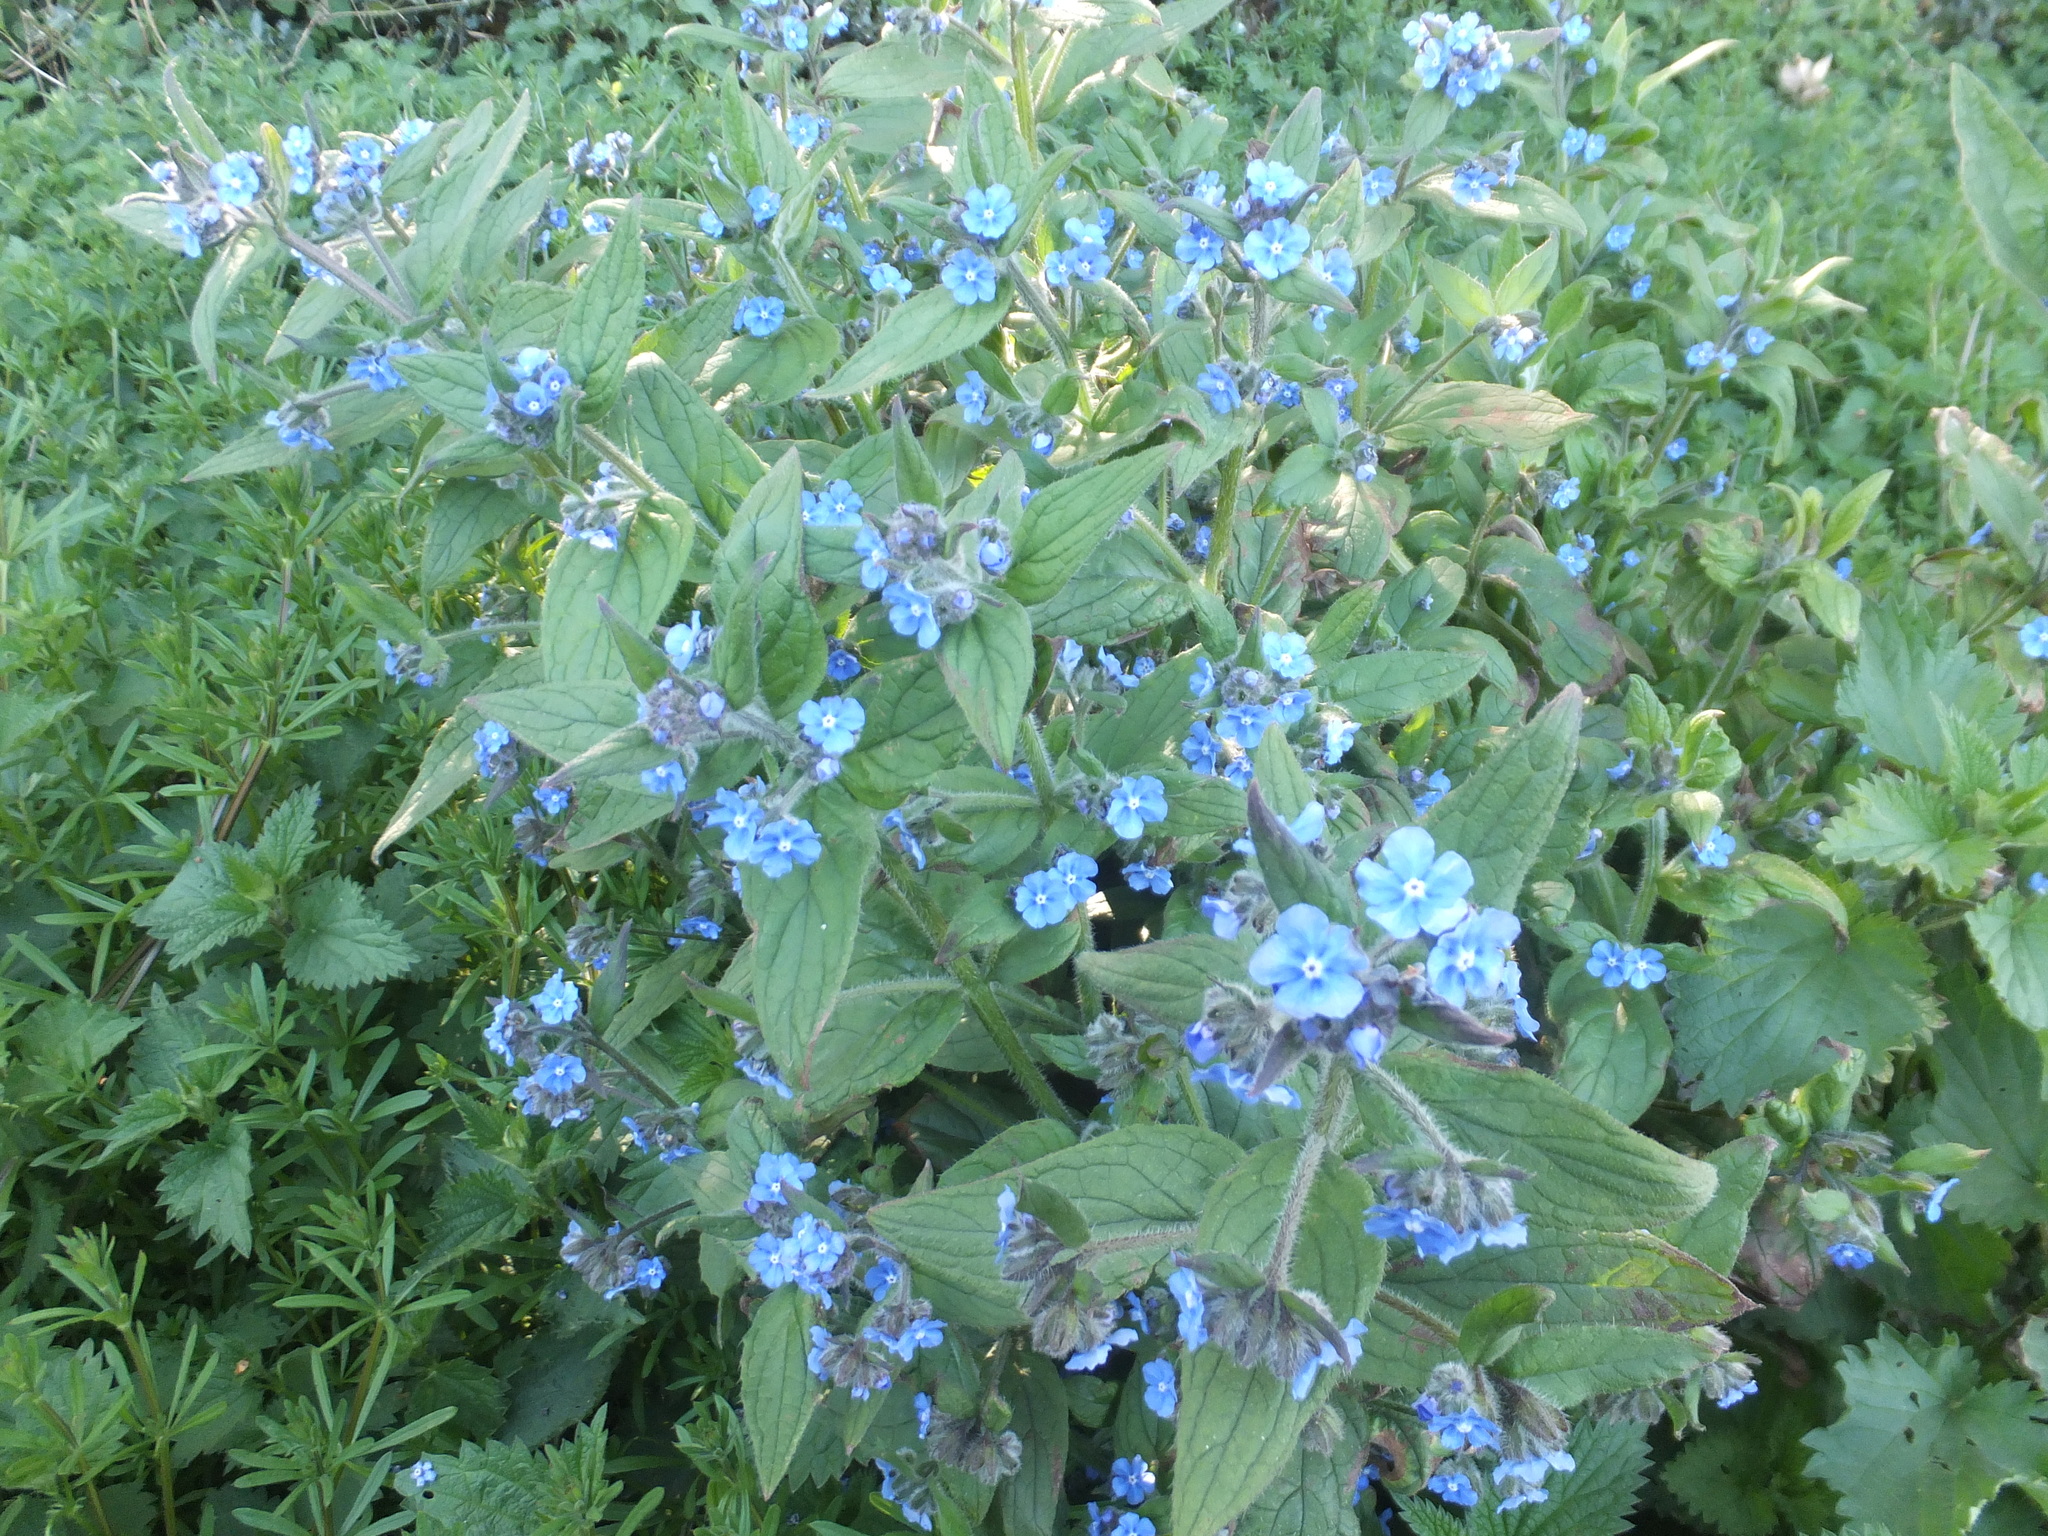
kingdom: Plantae
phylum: Tracheophyta
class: Magnoliopsida
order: Boraginales
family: Boraginaceae
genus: Pentaglottis
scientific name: Pentaglottis sempervirens
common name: Green alkanet
